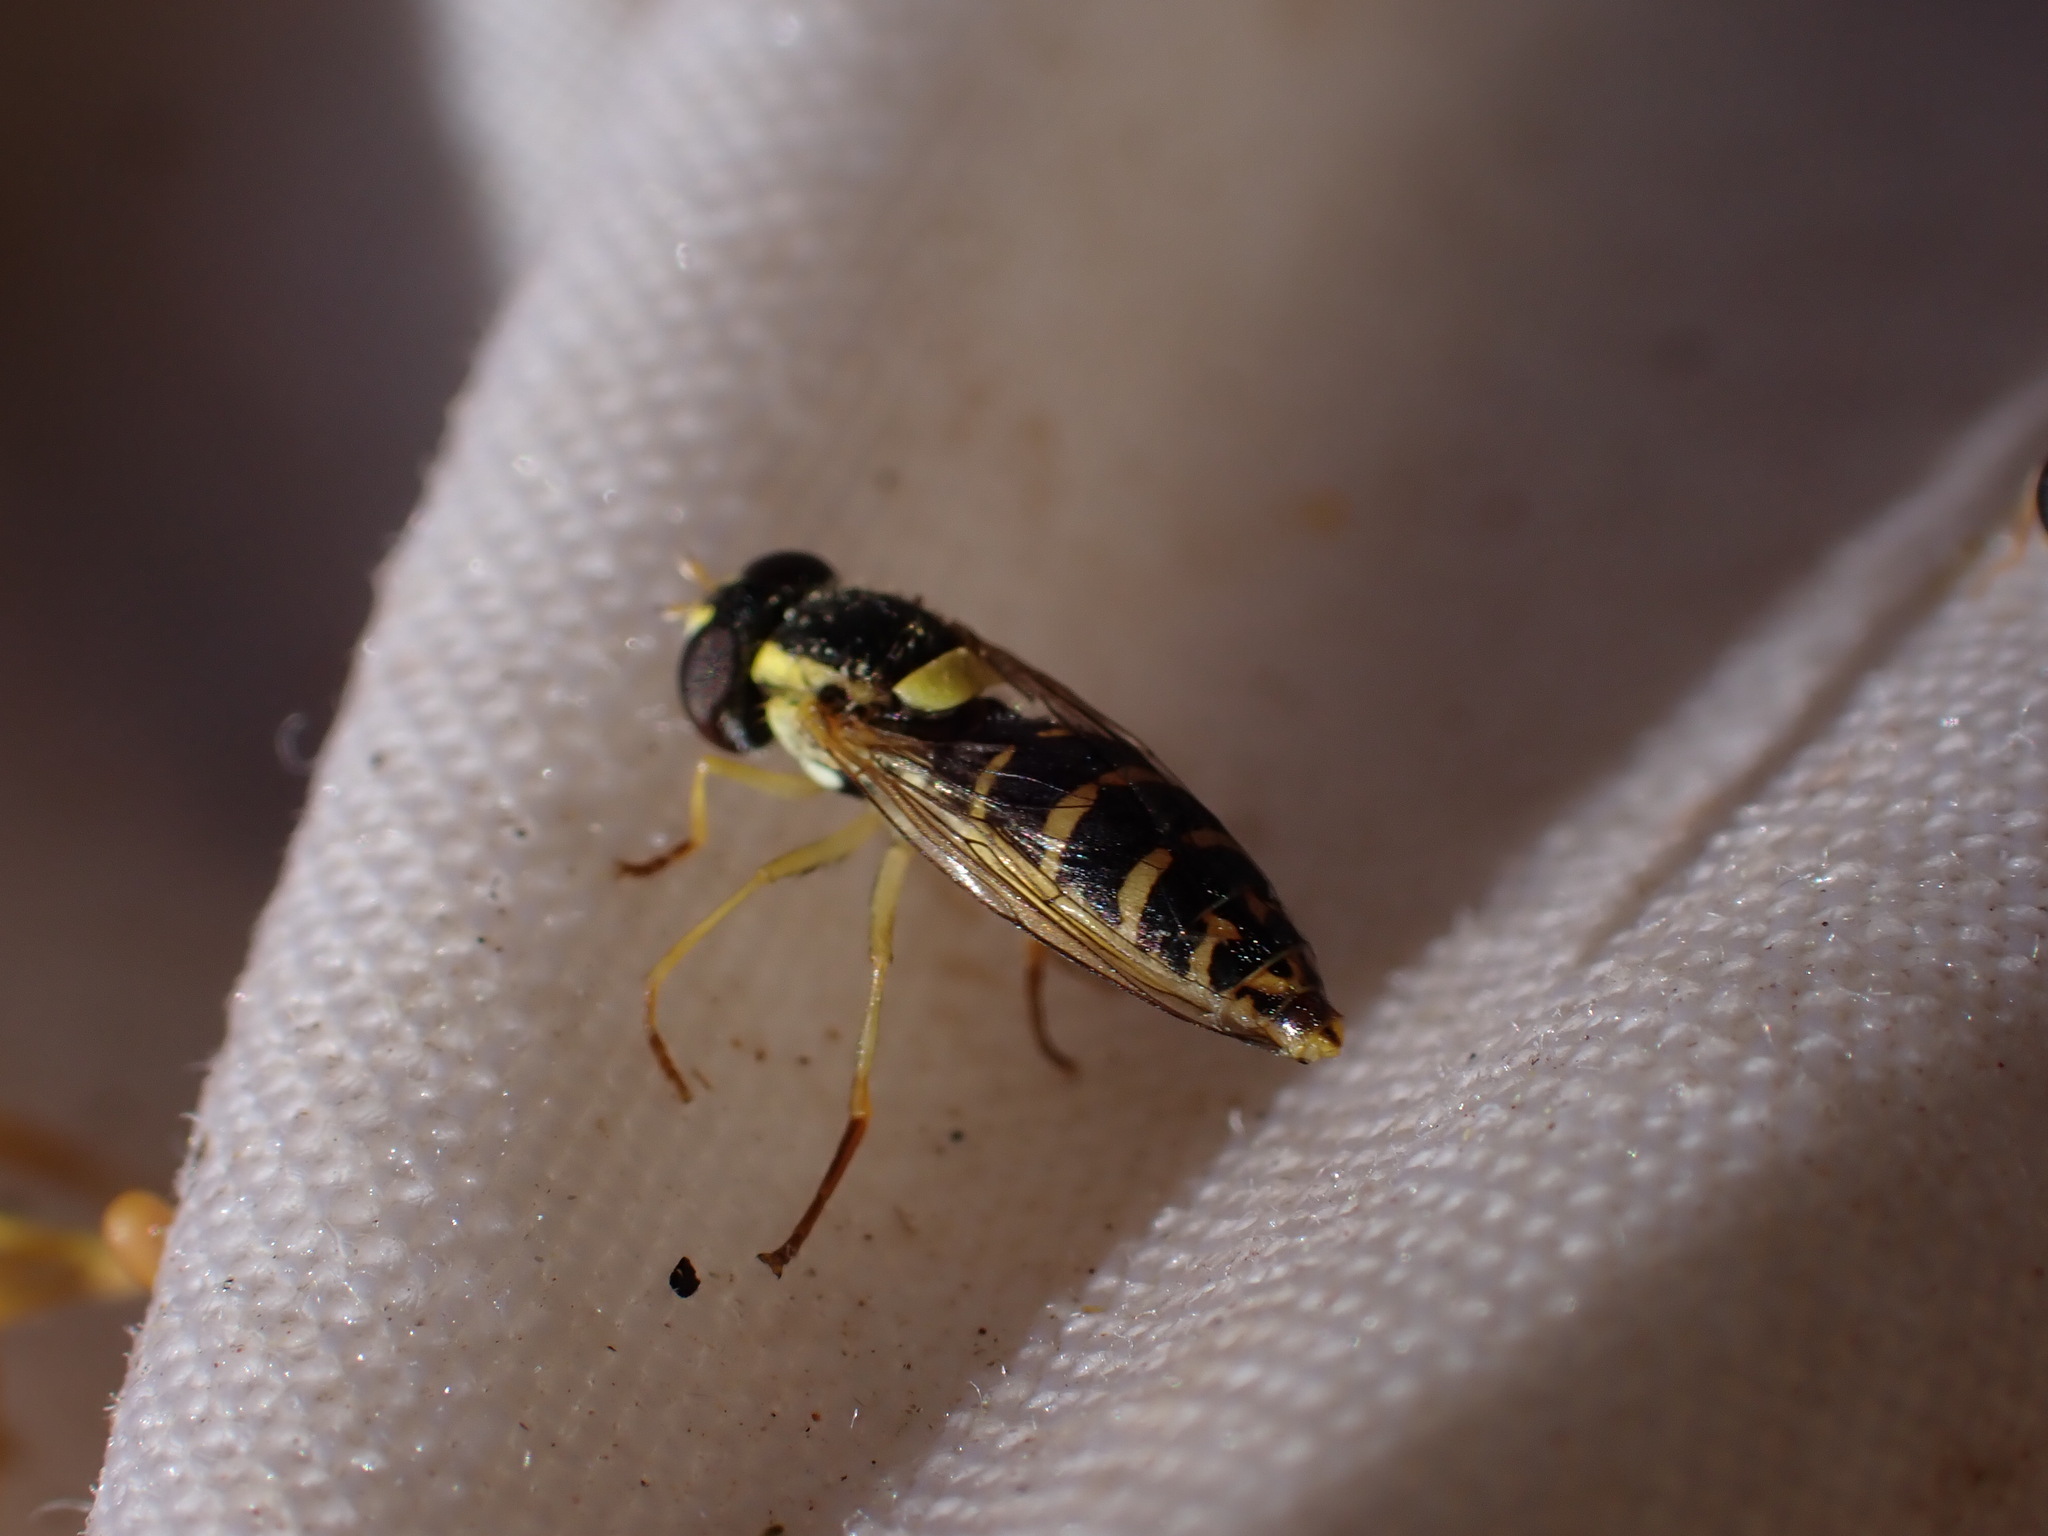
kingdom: Animalia
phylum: Arthropoda
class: Insecta
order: Diptera
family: Syrphidae
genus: Sphaerophoria
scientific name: Sphaerophoria
